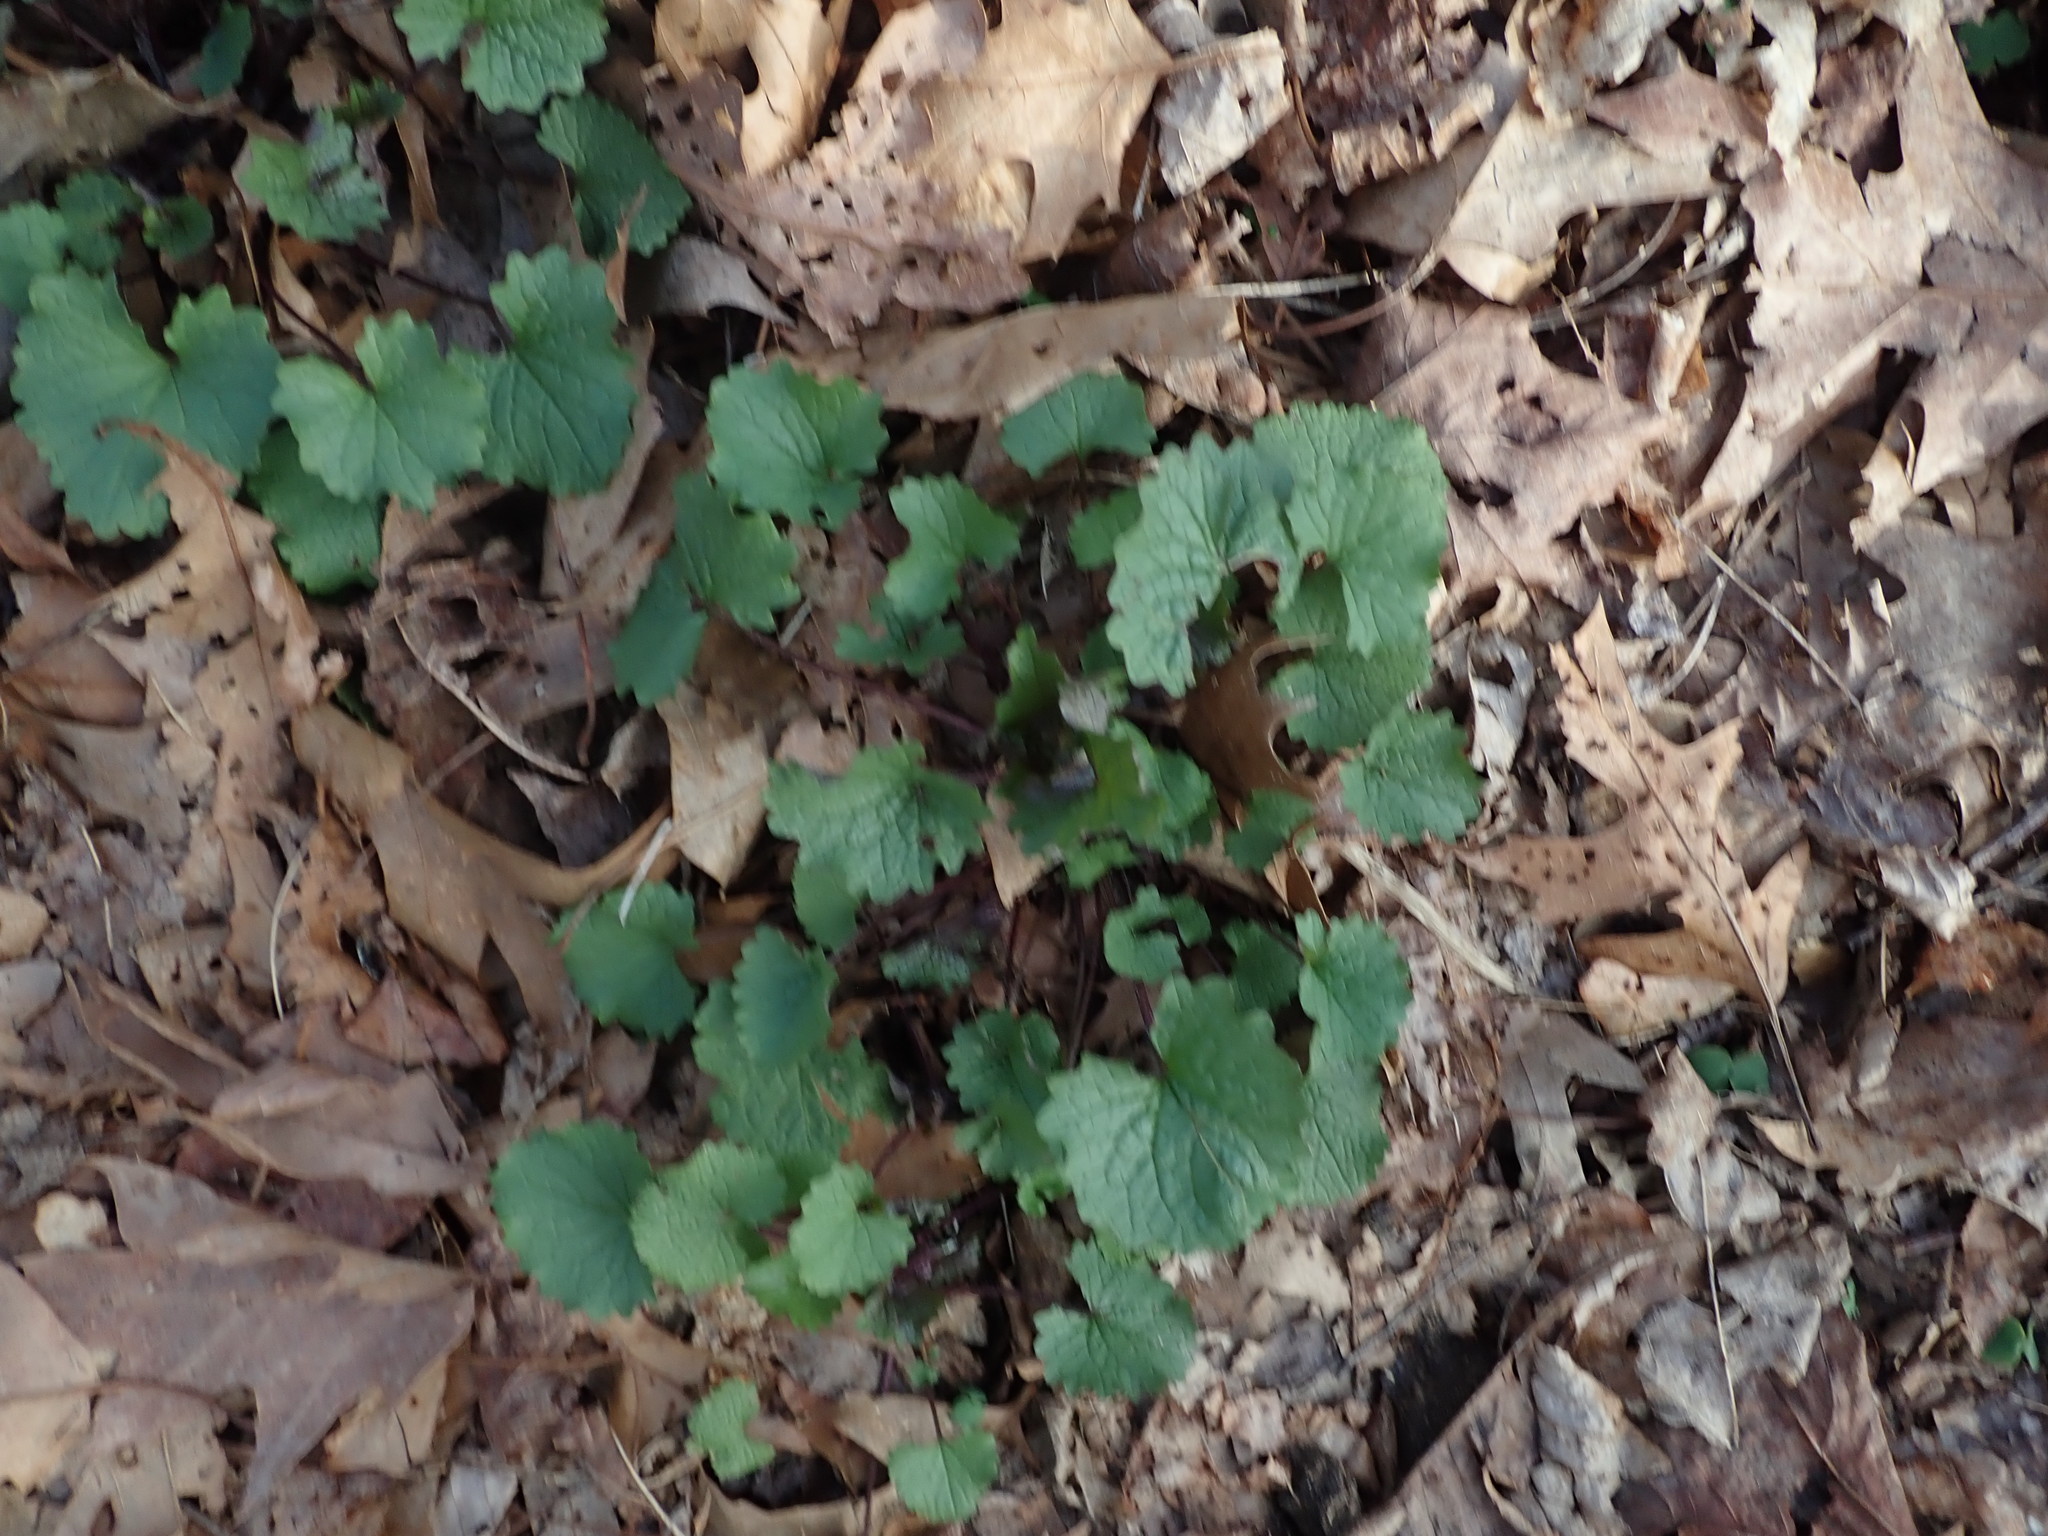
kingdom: Plantae
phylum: Tracheophyta
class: Magnoliopsida
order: Ranunculales
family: Ranunculaceae
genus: Ficaria
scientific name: Ficaria verna
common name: Lesser celandine
